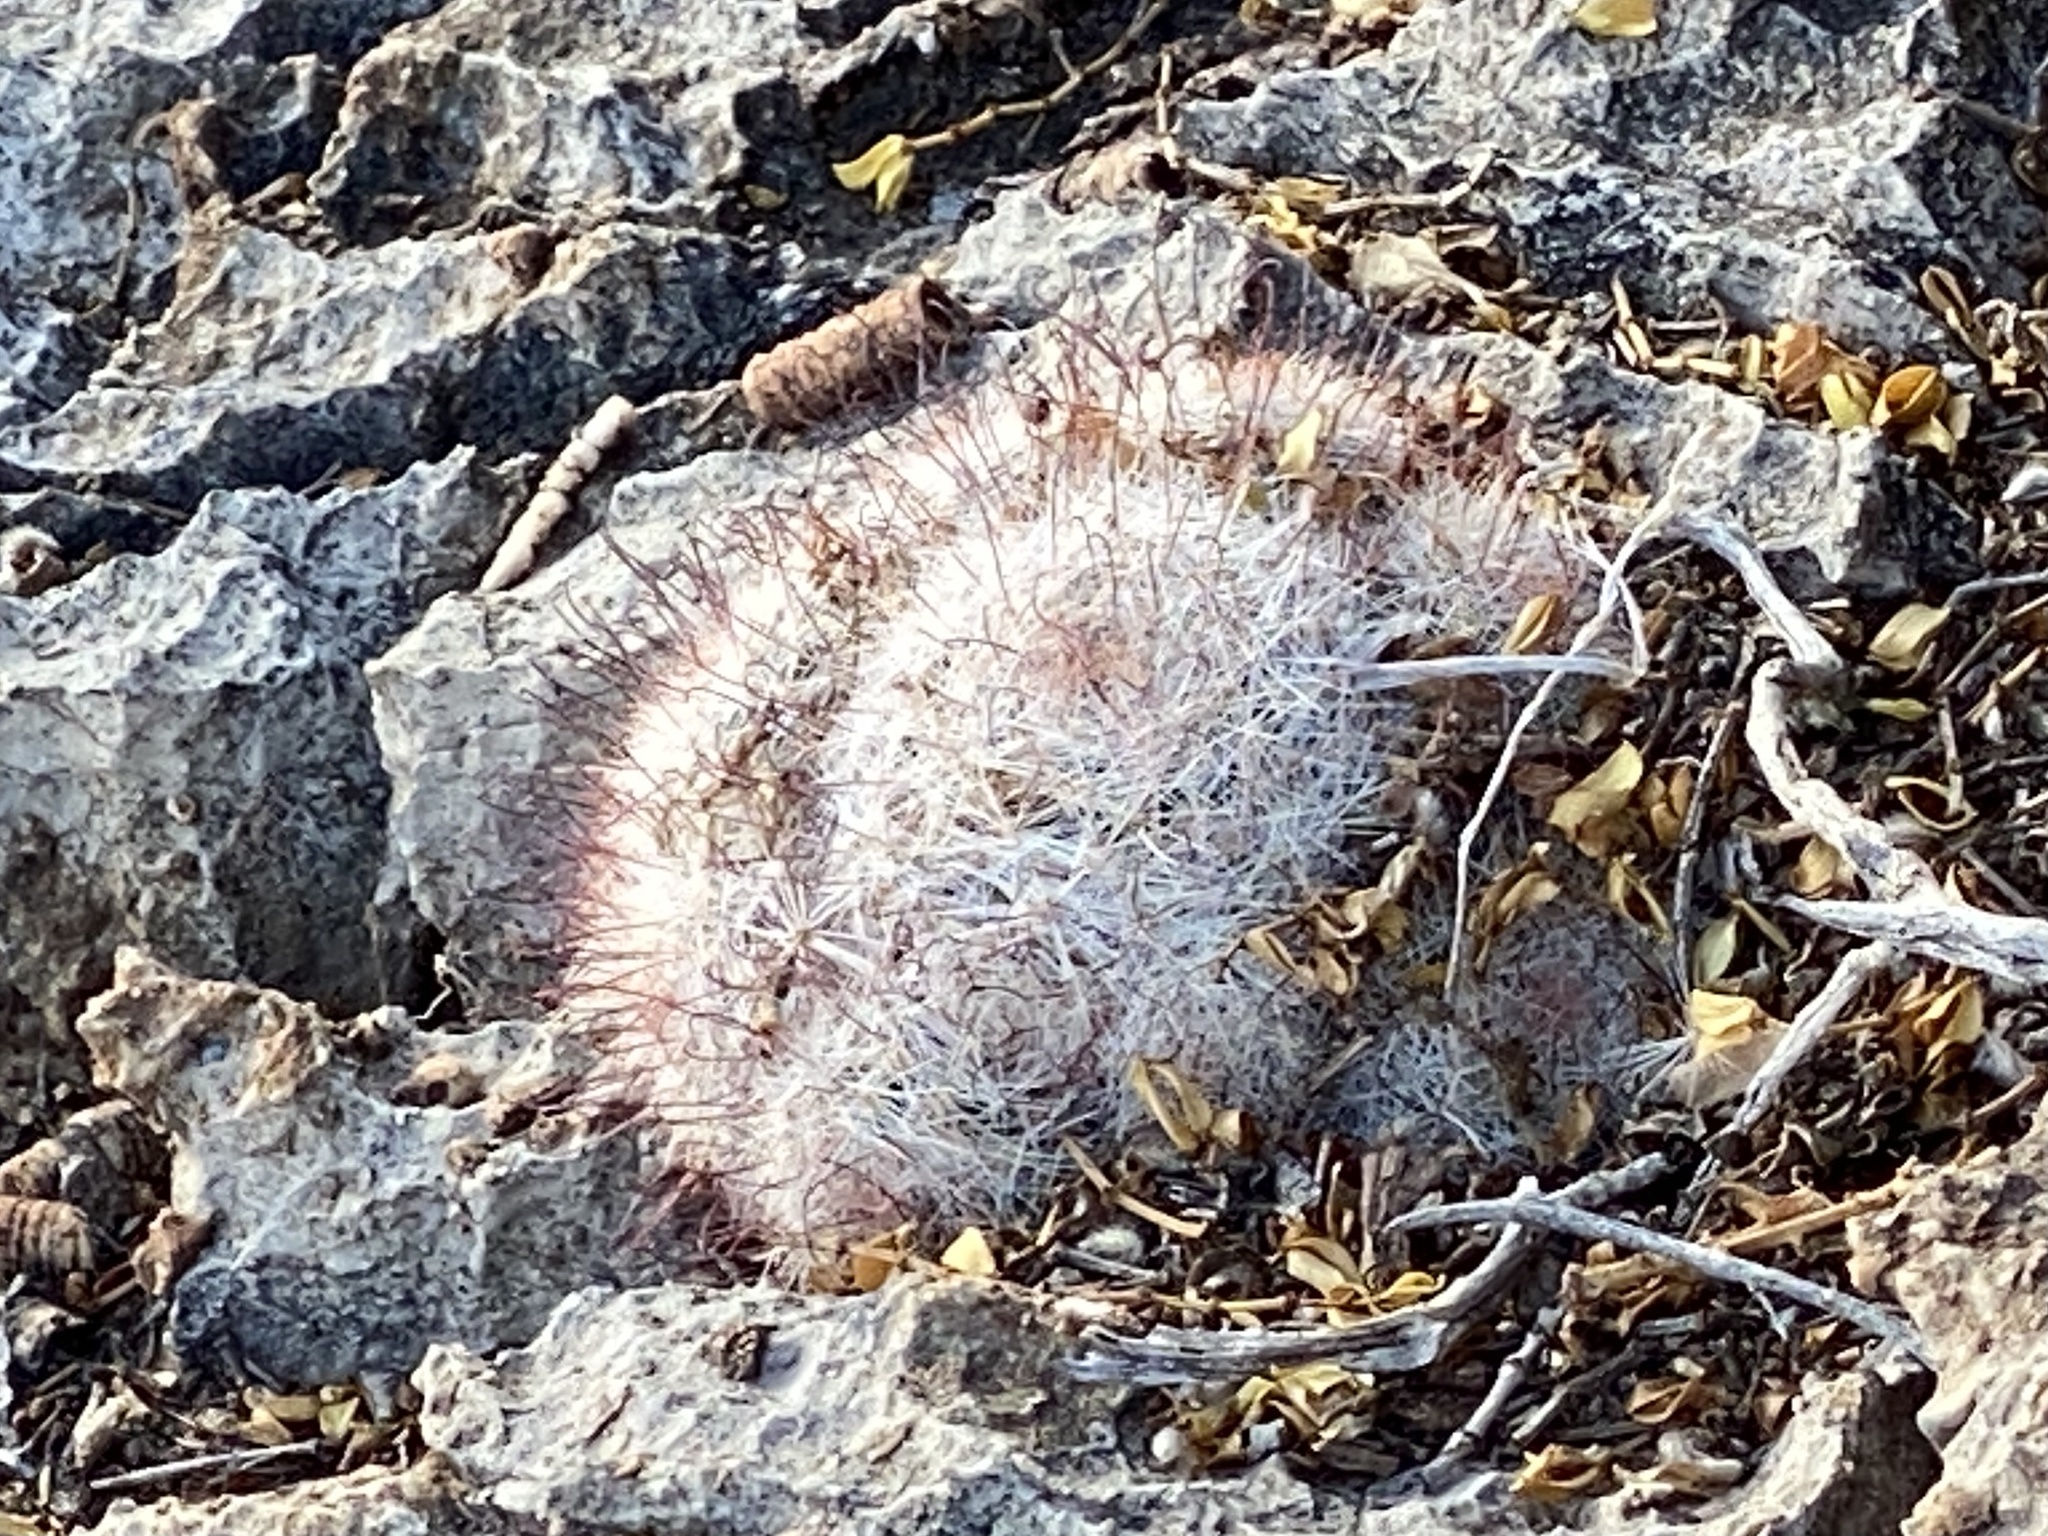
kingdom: Plantae
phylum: Tracheophyta
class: Magnoliopsida
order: Caryophyllales
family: Cactaceae
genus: Cochemiea
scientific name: Cochemiea grahamii
